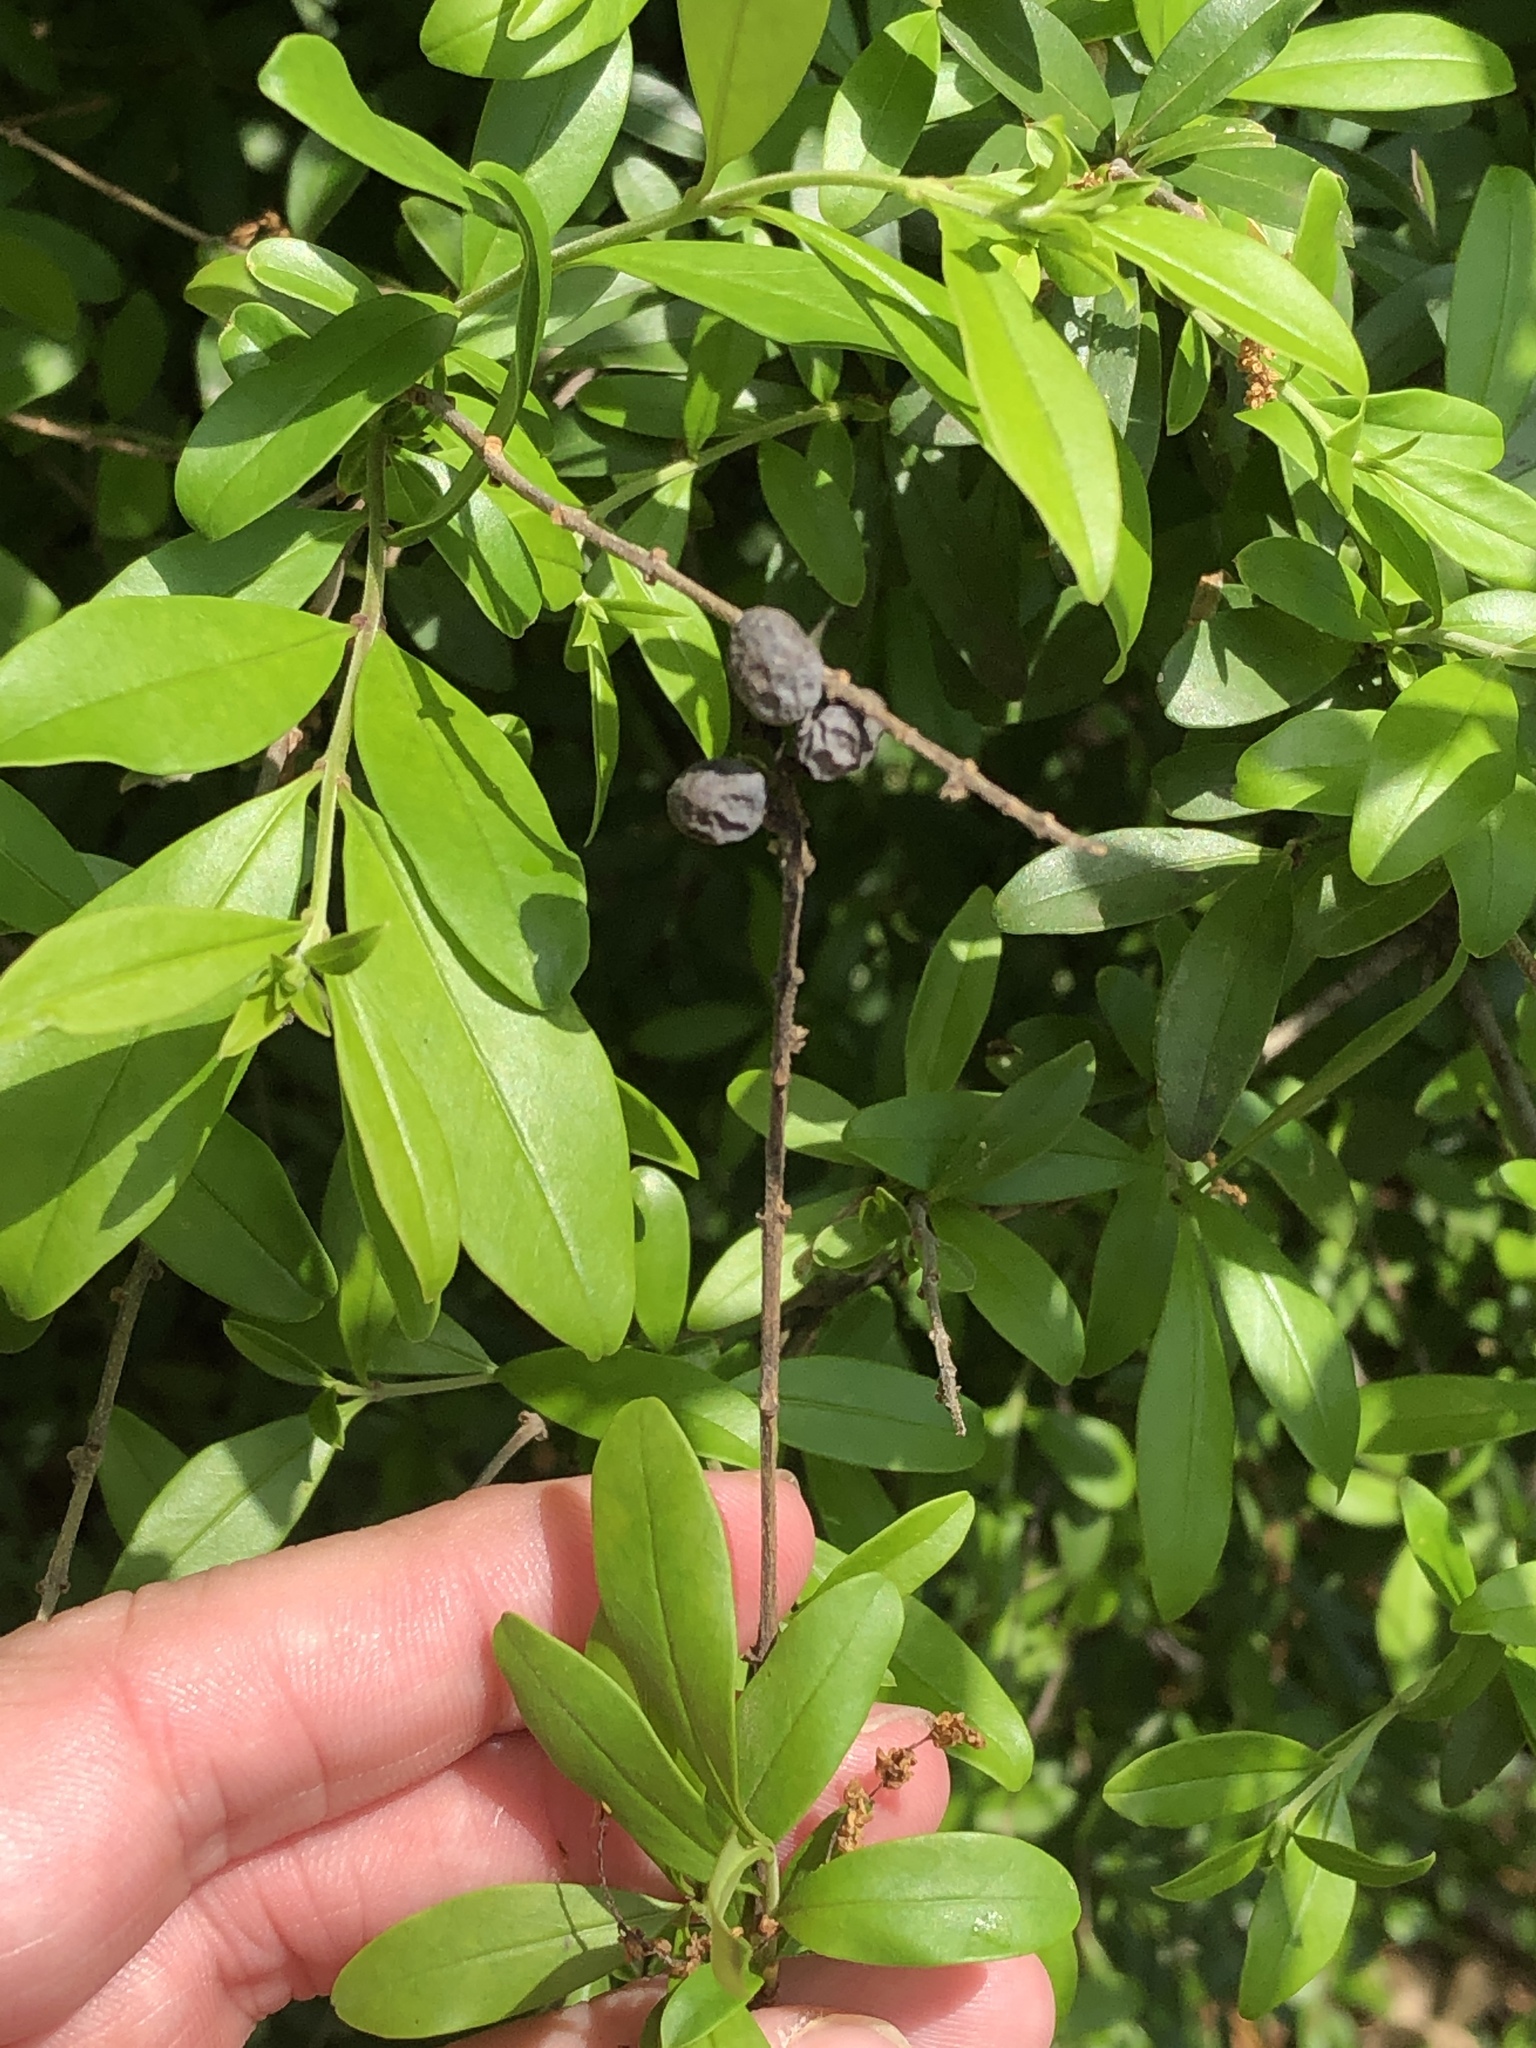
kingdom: Plantae
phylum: Tracheophyta
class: Magnoliopsida
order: Lamiales
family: Oleaceae
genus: Ligustrum
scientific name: Ligustrum quihoui
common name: Waxyleaf privet
